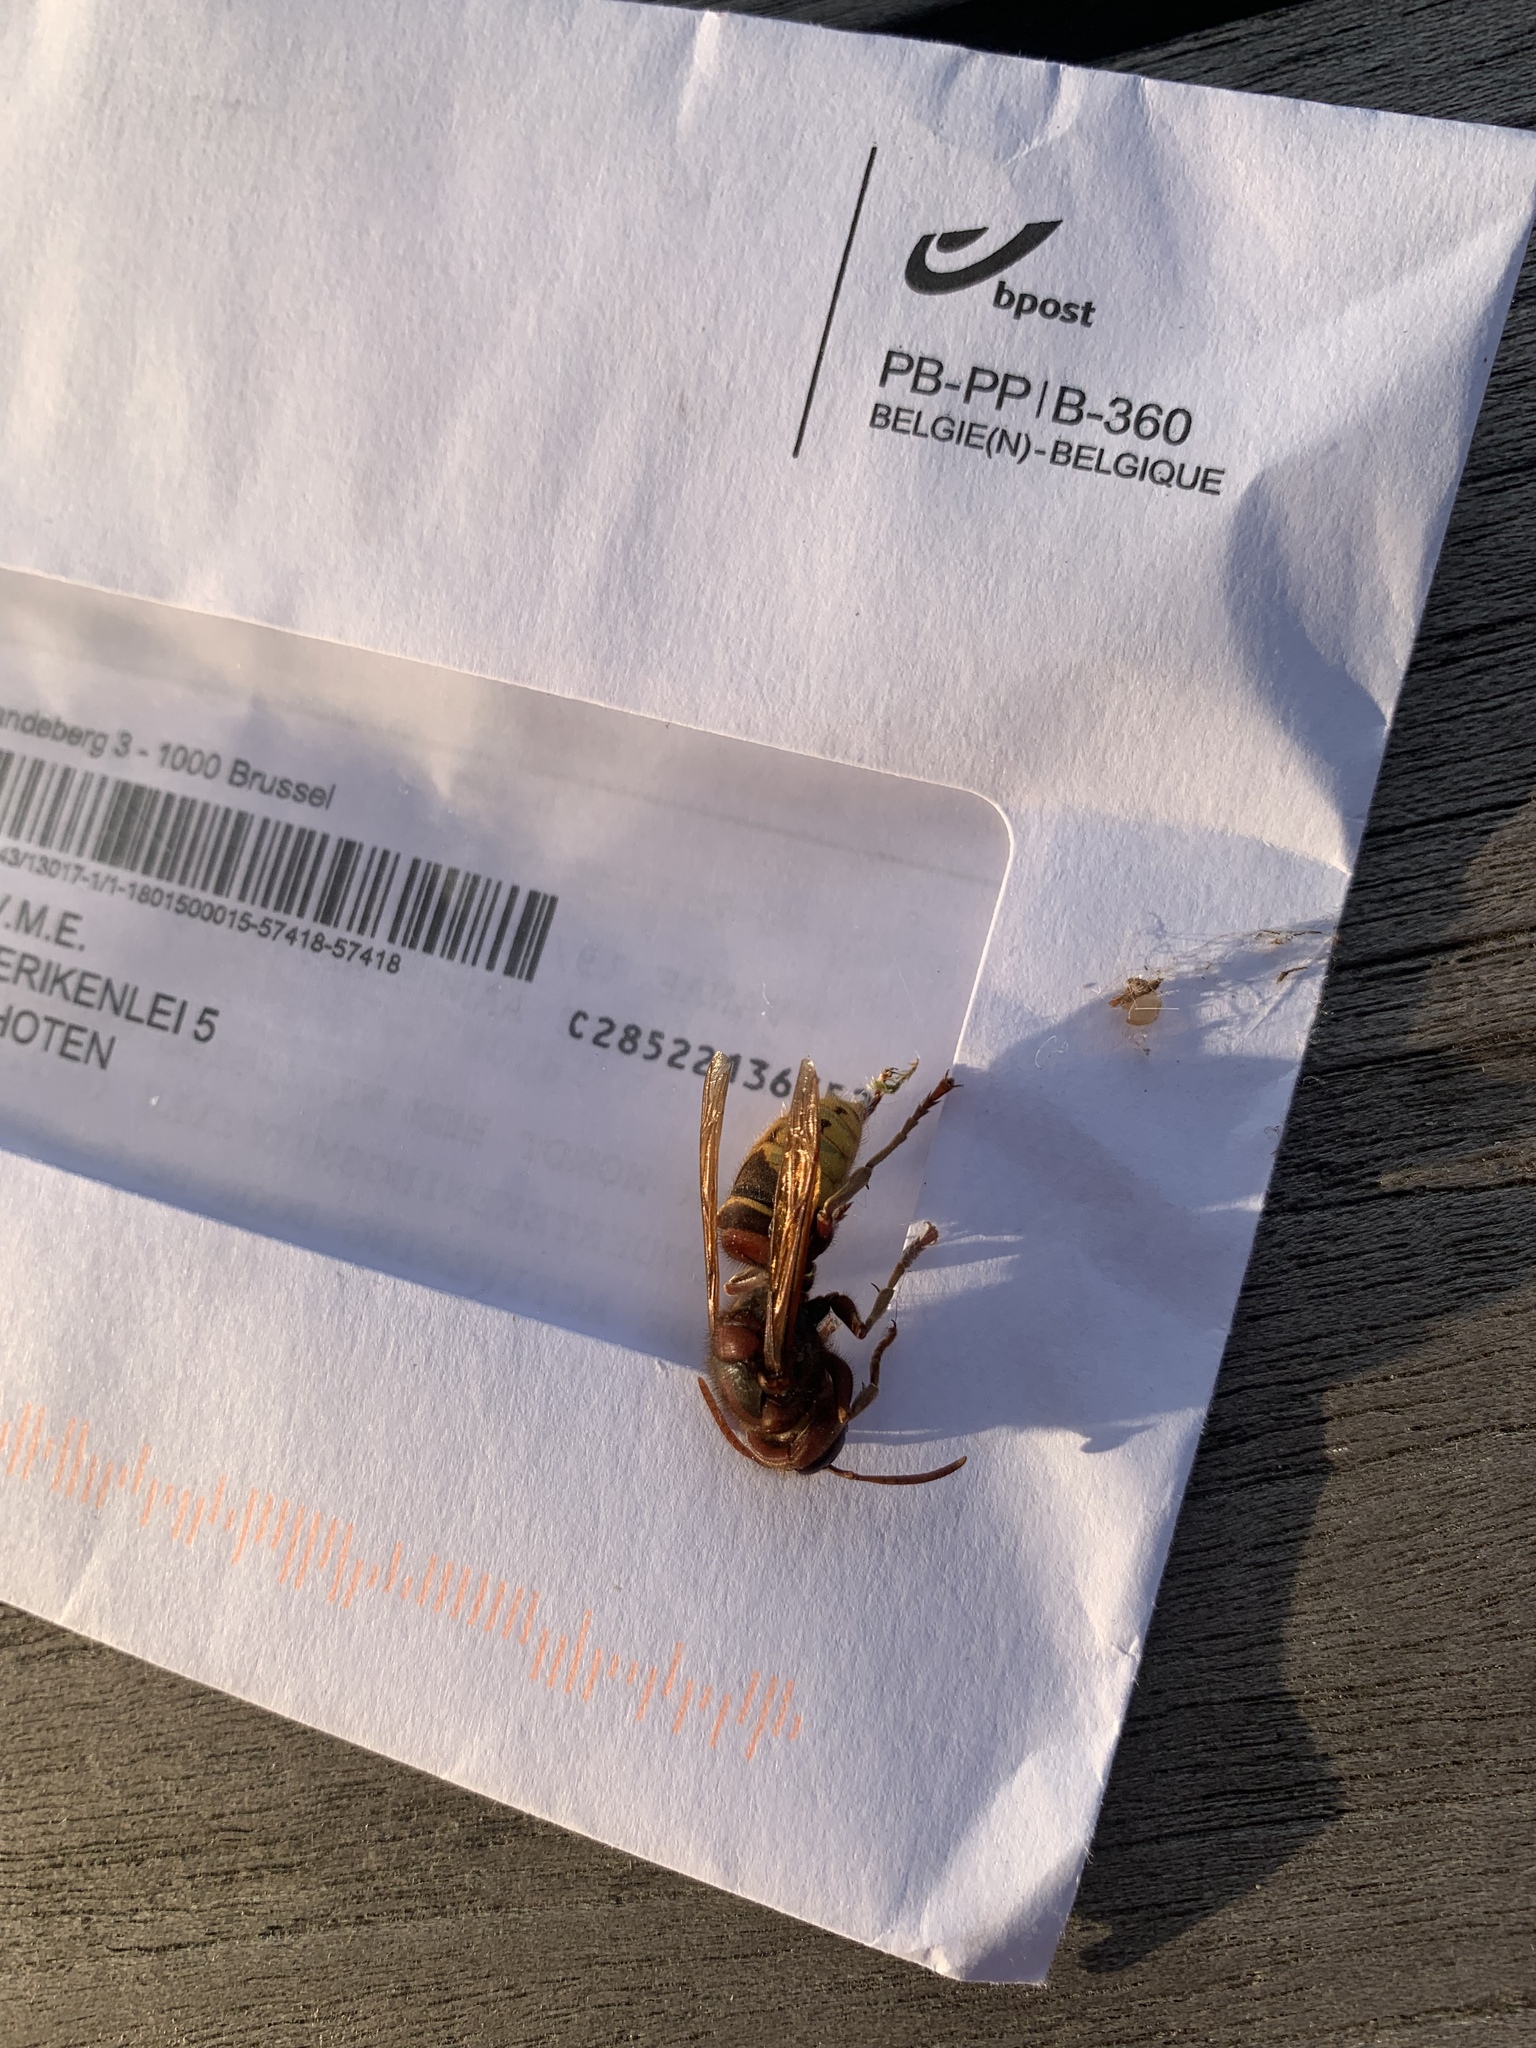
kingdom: Animalia
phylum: Arthropoda
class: Insecta
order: Hymenoptera
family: Vespidae
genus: Vespa
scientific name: Vespa crabro
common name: Hornet
